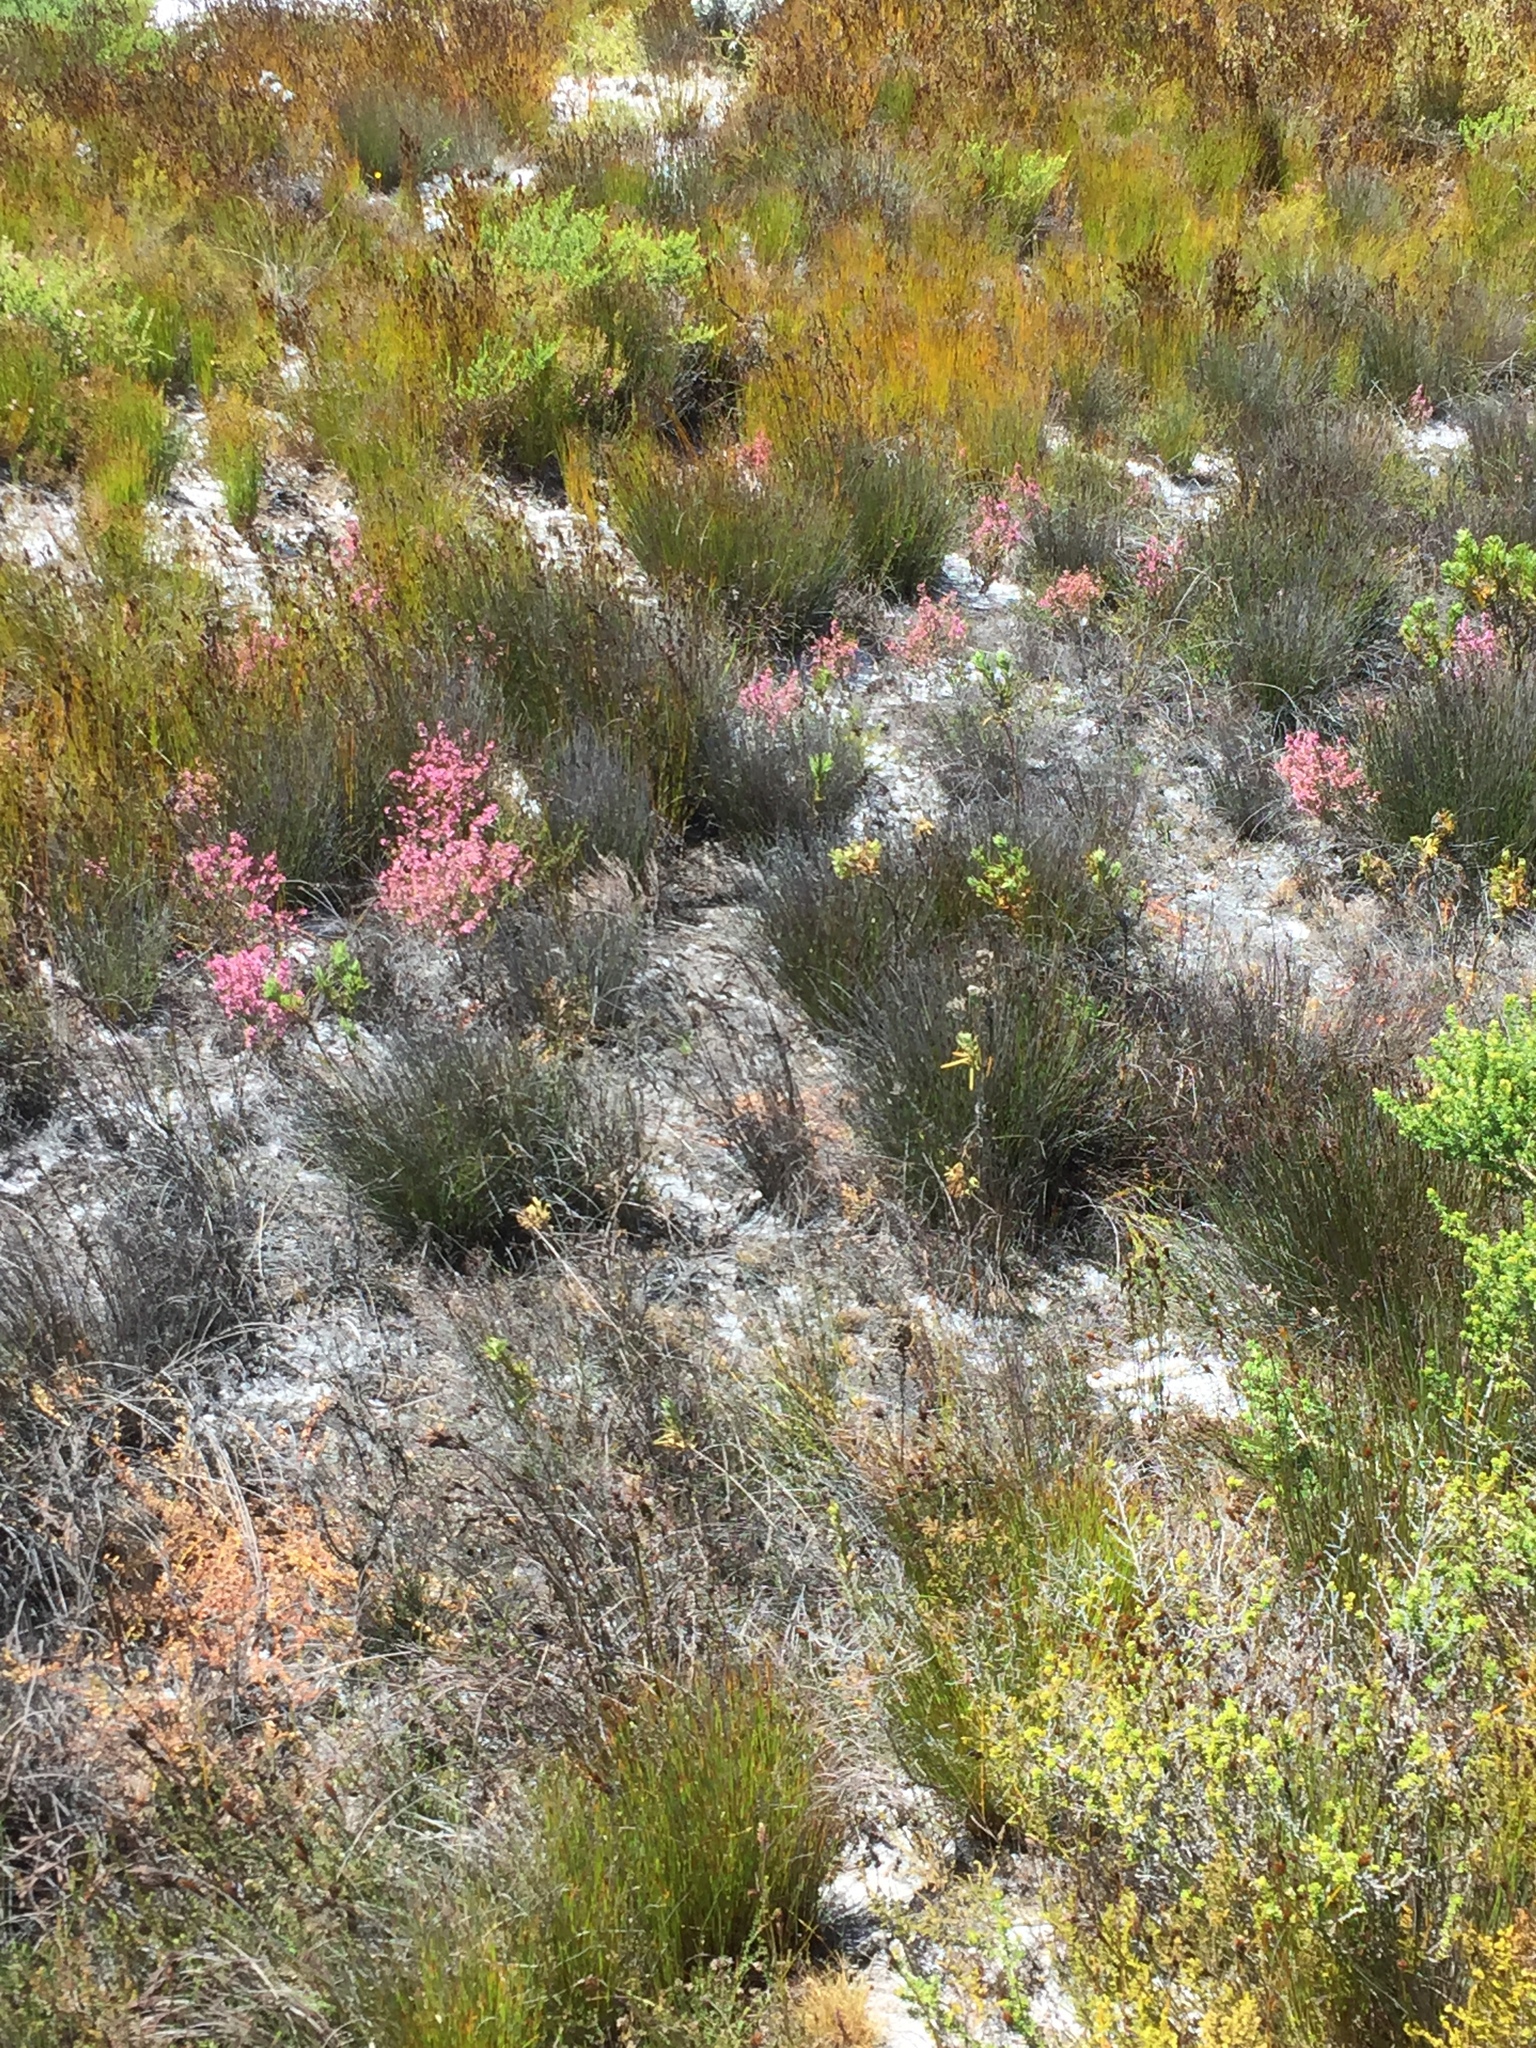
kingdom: Plantae
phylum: Tracheophyta
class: Magnoliopsida
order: Ericales
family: Ericaceae
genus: Erica
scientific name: Erica gnaphaloides
